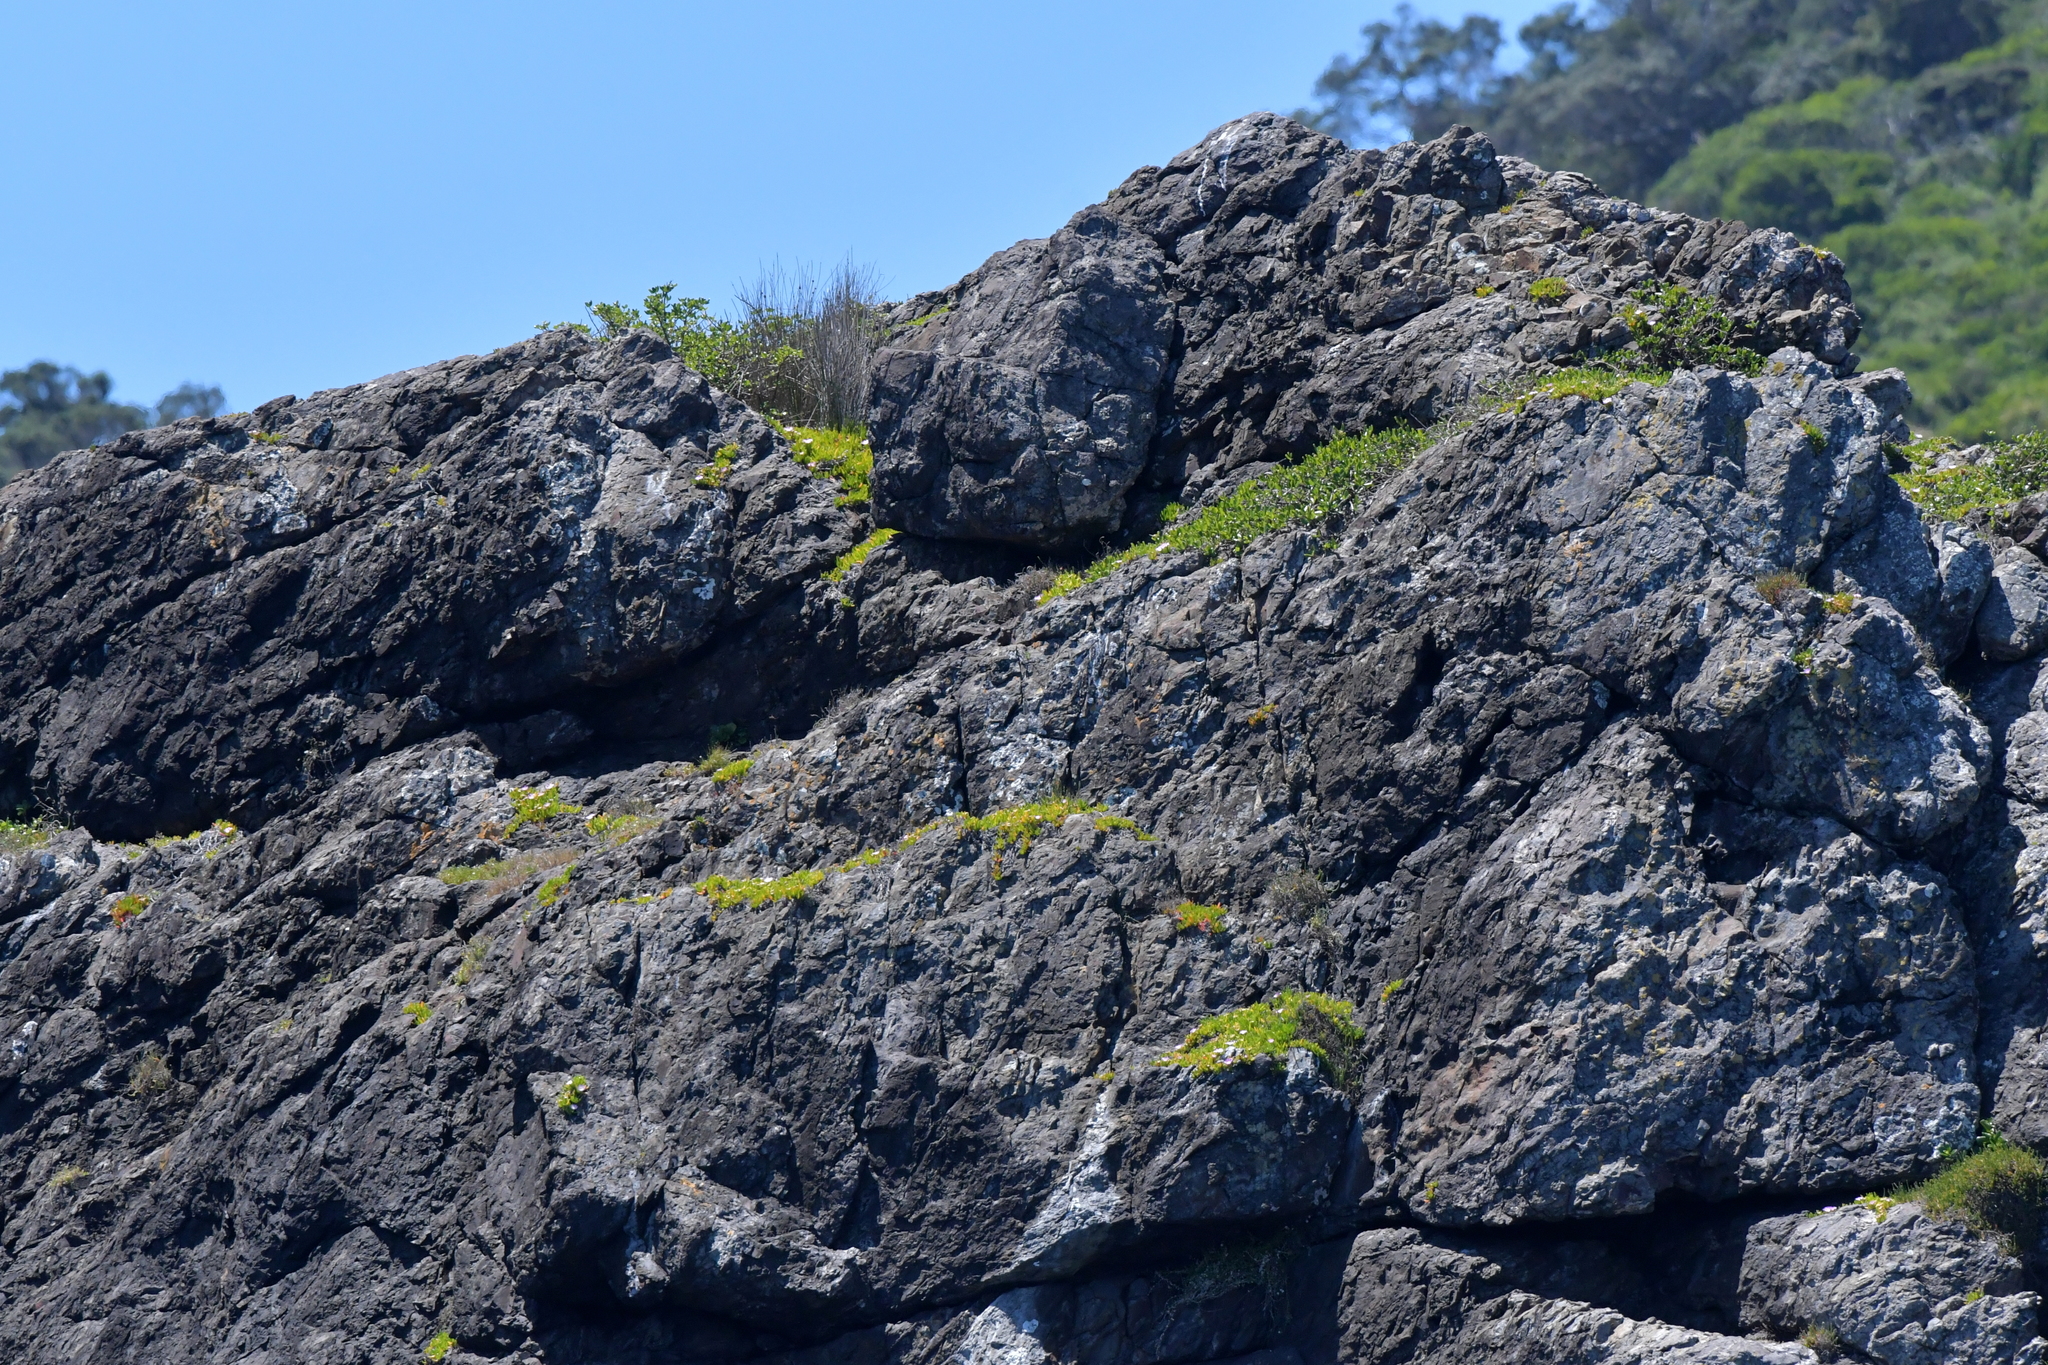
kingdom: Plantae
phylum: Tracheophyta
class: Magnoliopsida
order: Caryophyllales
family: Aizoaceae
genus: Disphyma
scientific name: Disphyma australe
